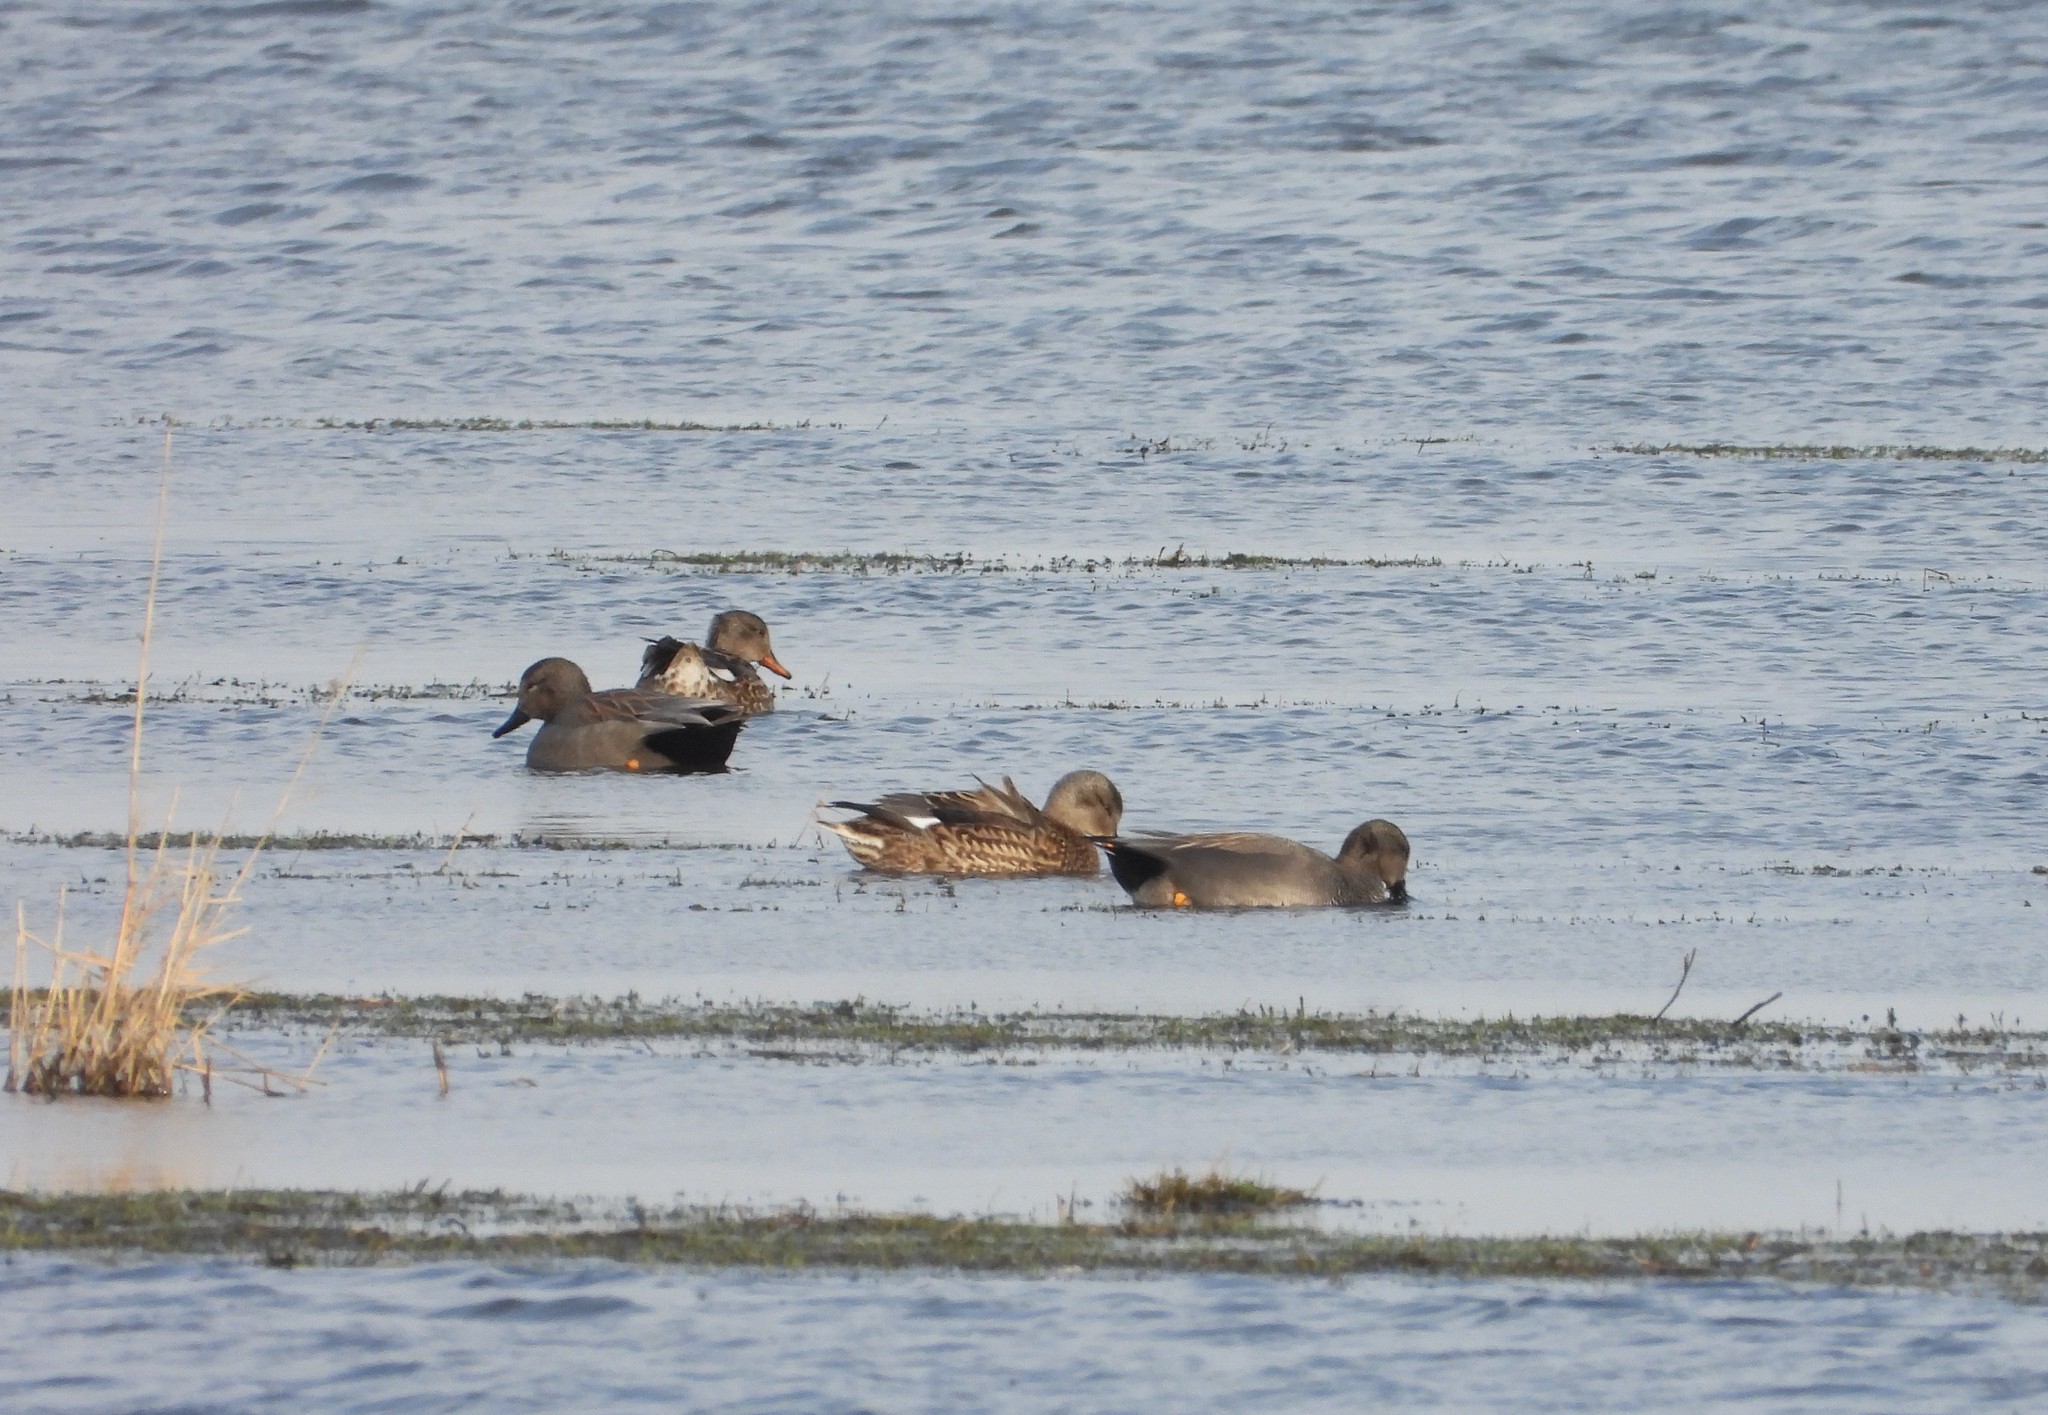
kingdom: Animalia
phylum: Chordata
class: Aves
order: Anseriformes
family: Anatidae
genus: Mareca
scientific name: Mareca strepera
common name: Gadwall
